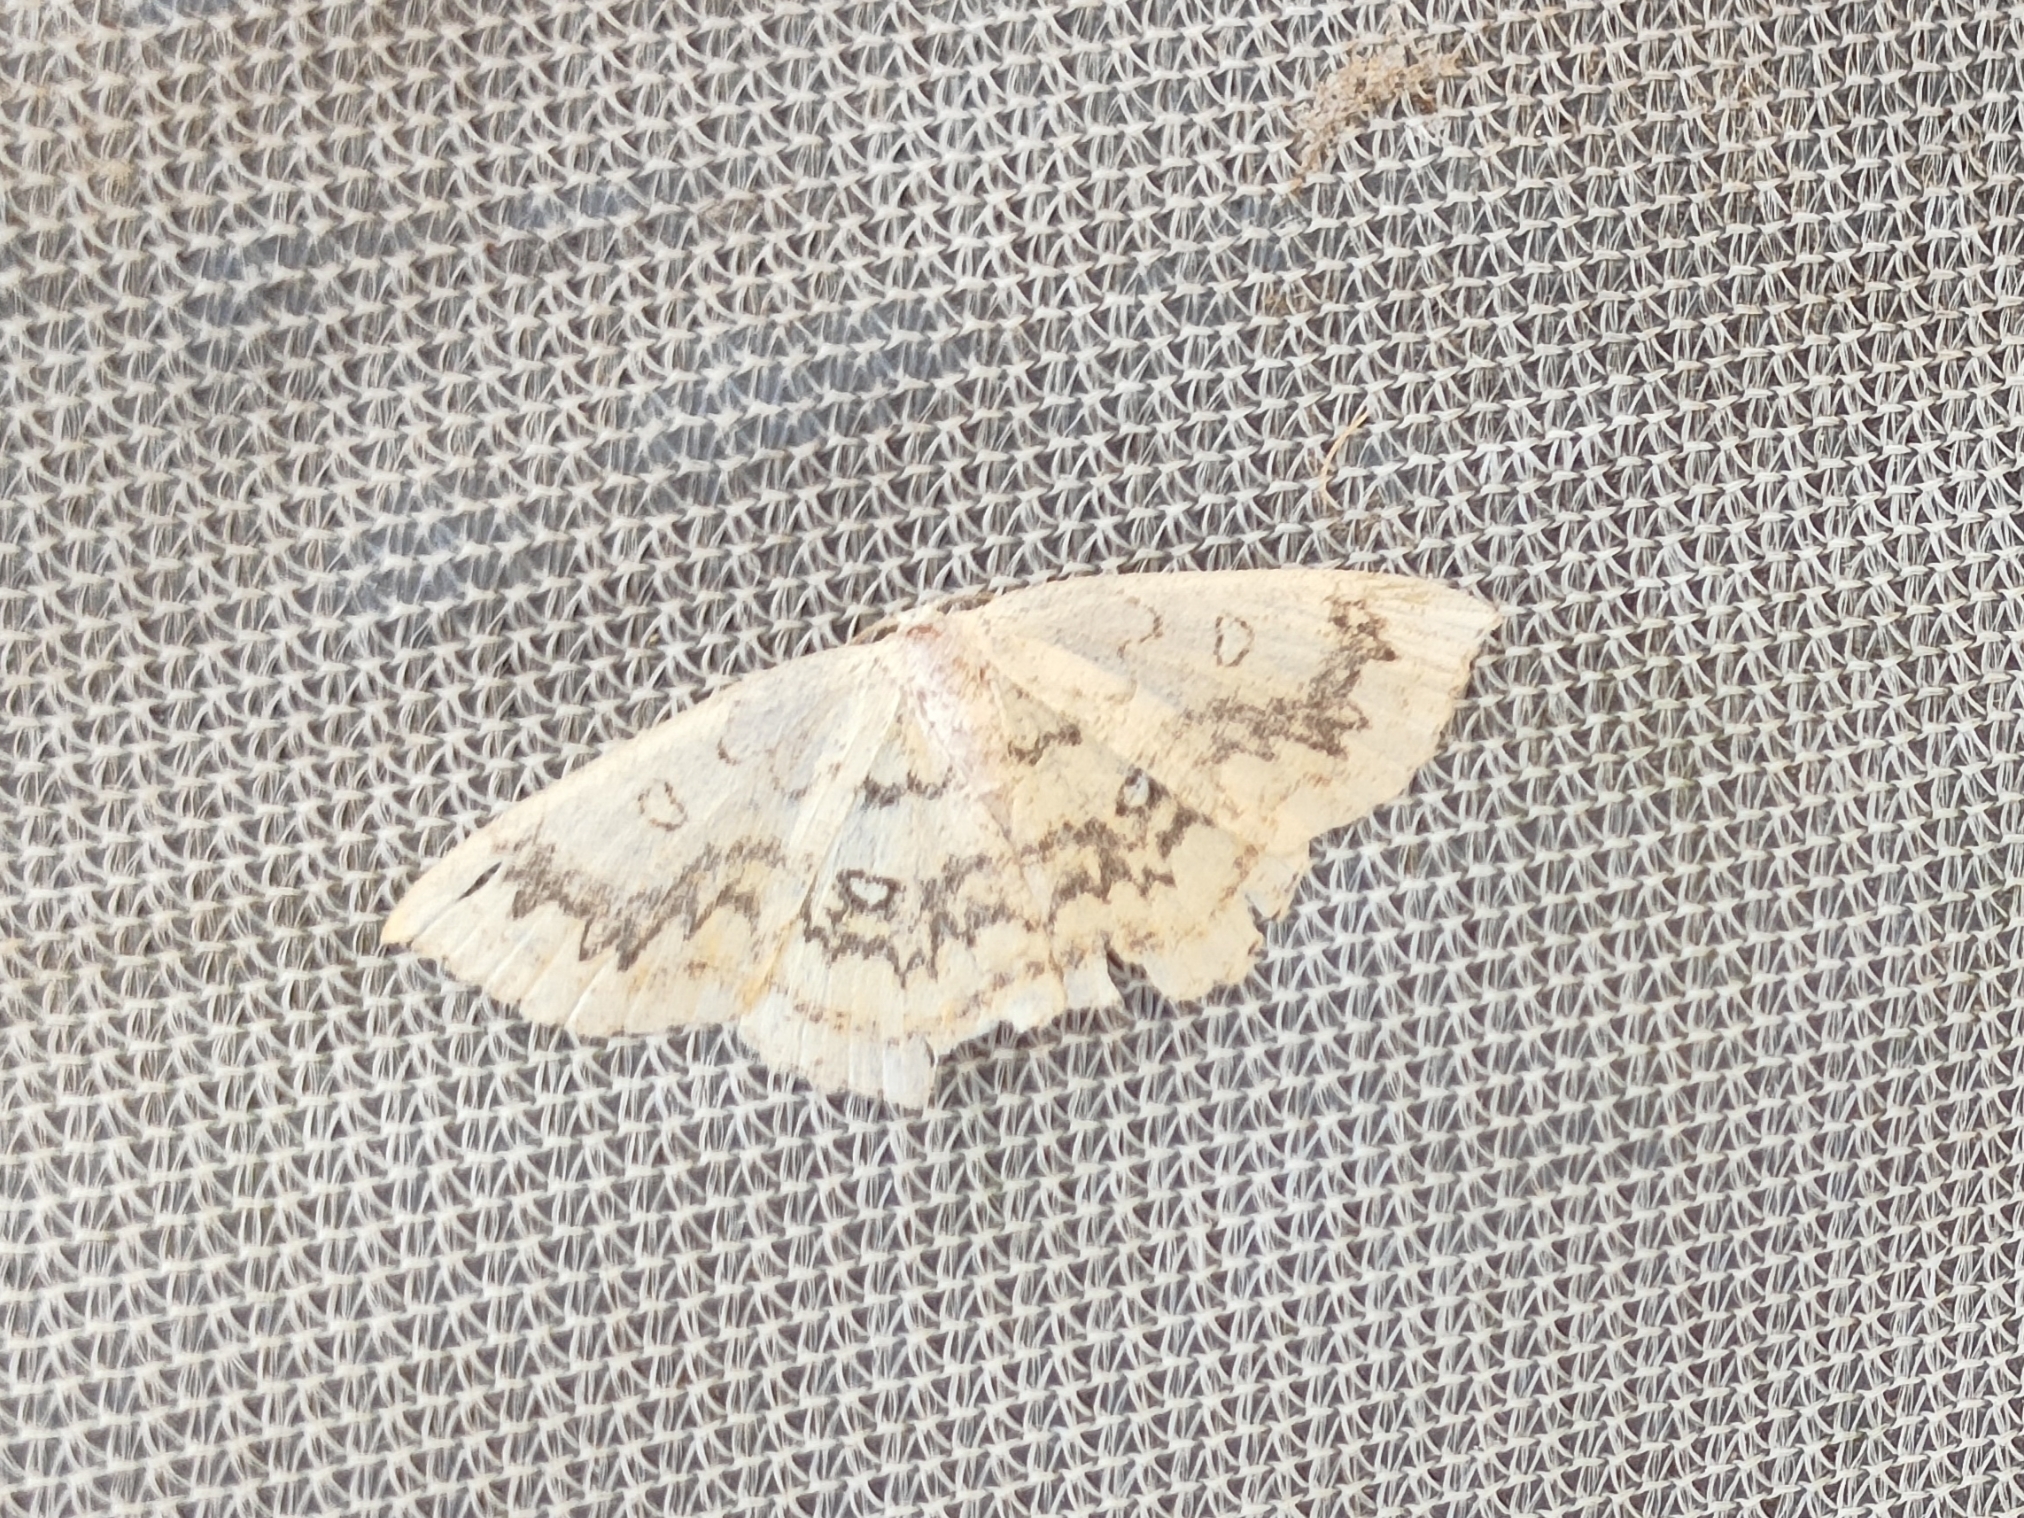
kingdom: Animalia
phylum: Arthropoda
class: Insecta
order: Lepidoptera
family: Geometridae
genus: Cyclophora
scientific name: Cyclophora annularia
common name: Mocha
